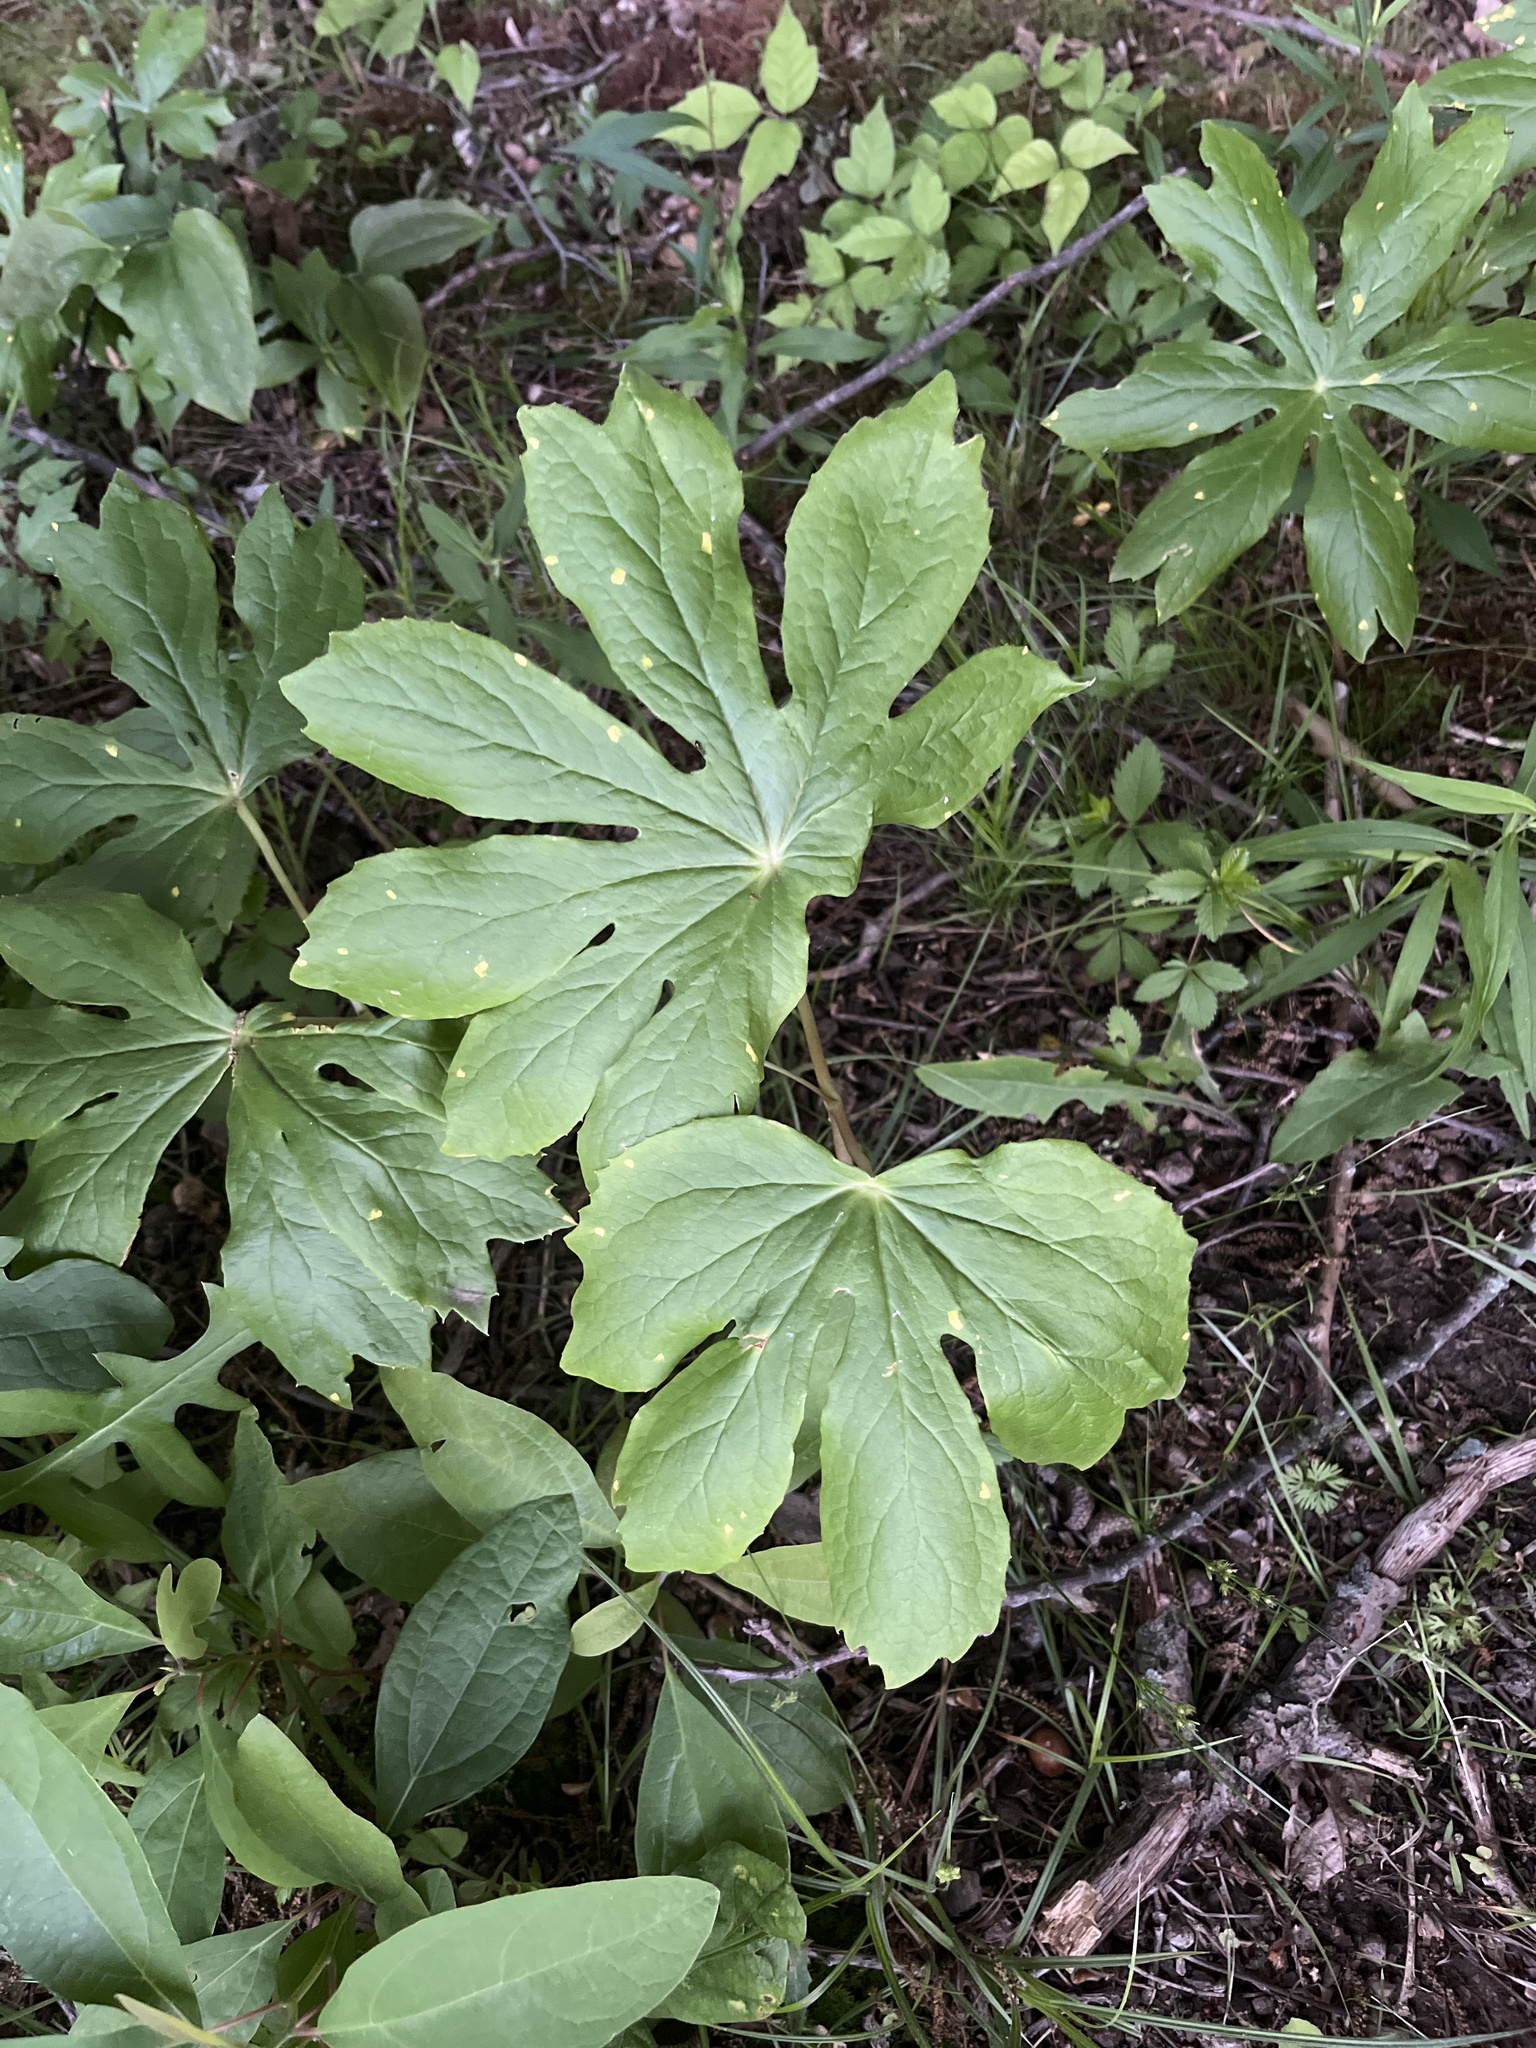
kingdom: Plantae
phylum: Tracheophyta
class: Magnoliopsida
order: Ranunculales
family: Berberidaceae
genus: Podophyllum
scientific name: Podophyllum peltatum
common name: Wild mandrake
